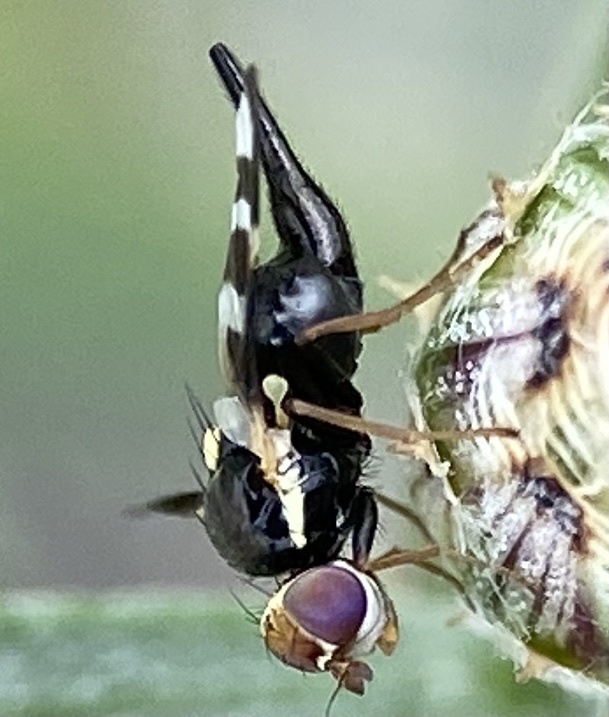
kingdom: Animalia
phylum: Arthropoda
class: Insecta
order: Diptera
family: Tephritidae
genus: Urophora
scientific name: Urophora quadrifasciata
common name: Knapweed seedhead fly
